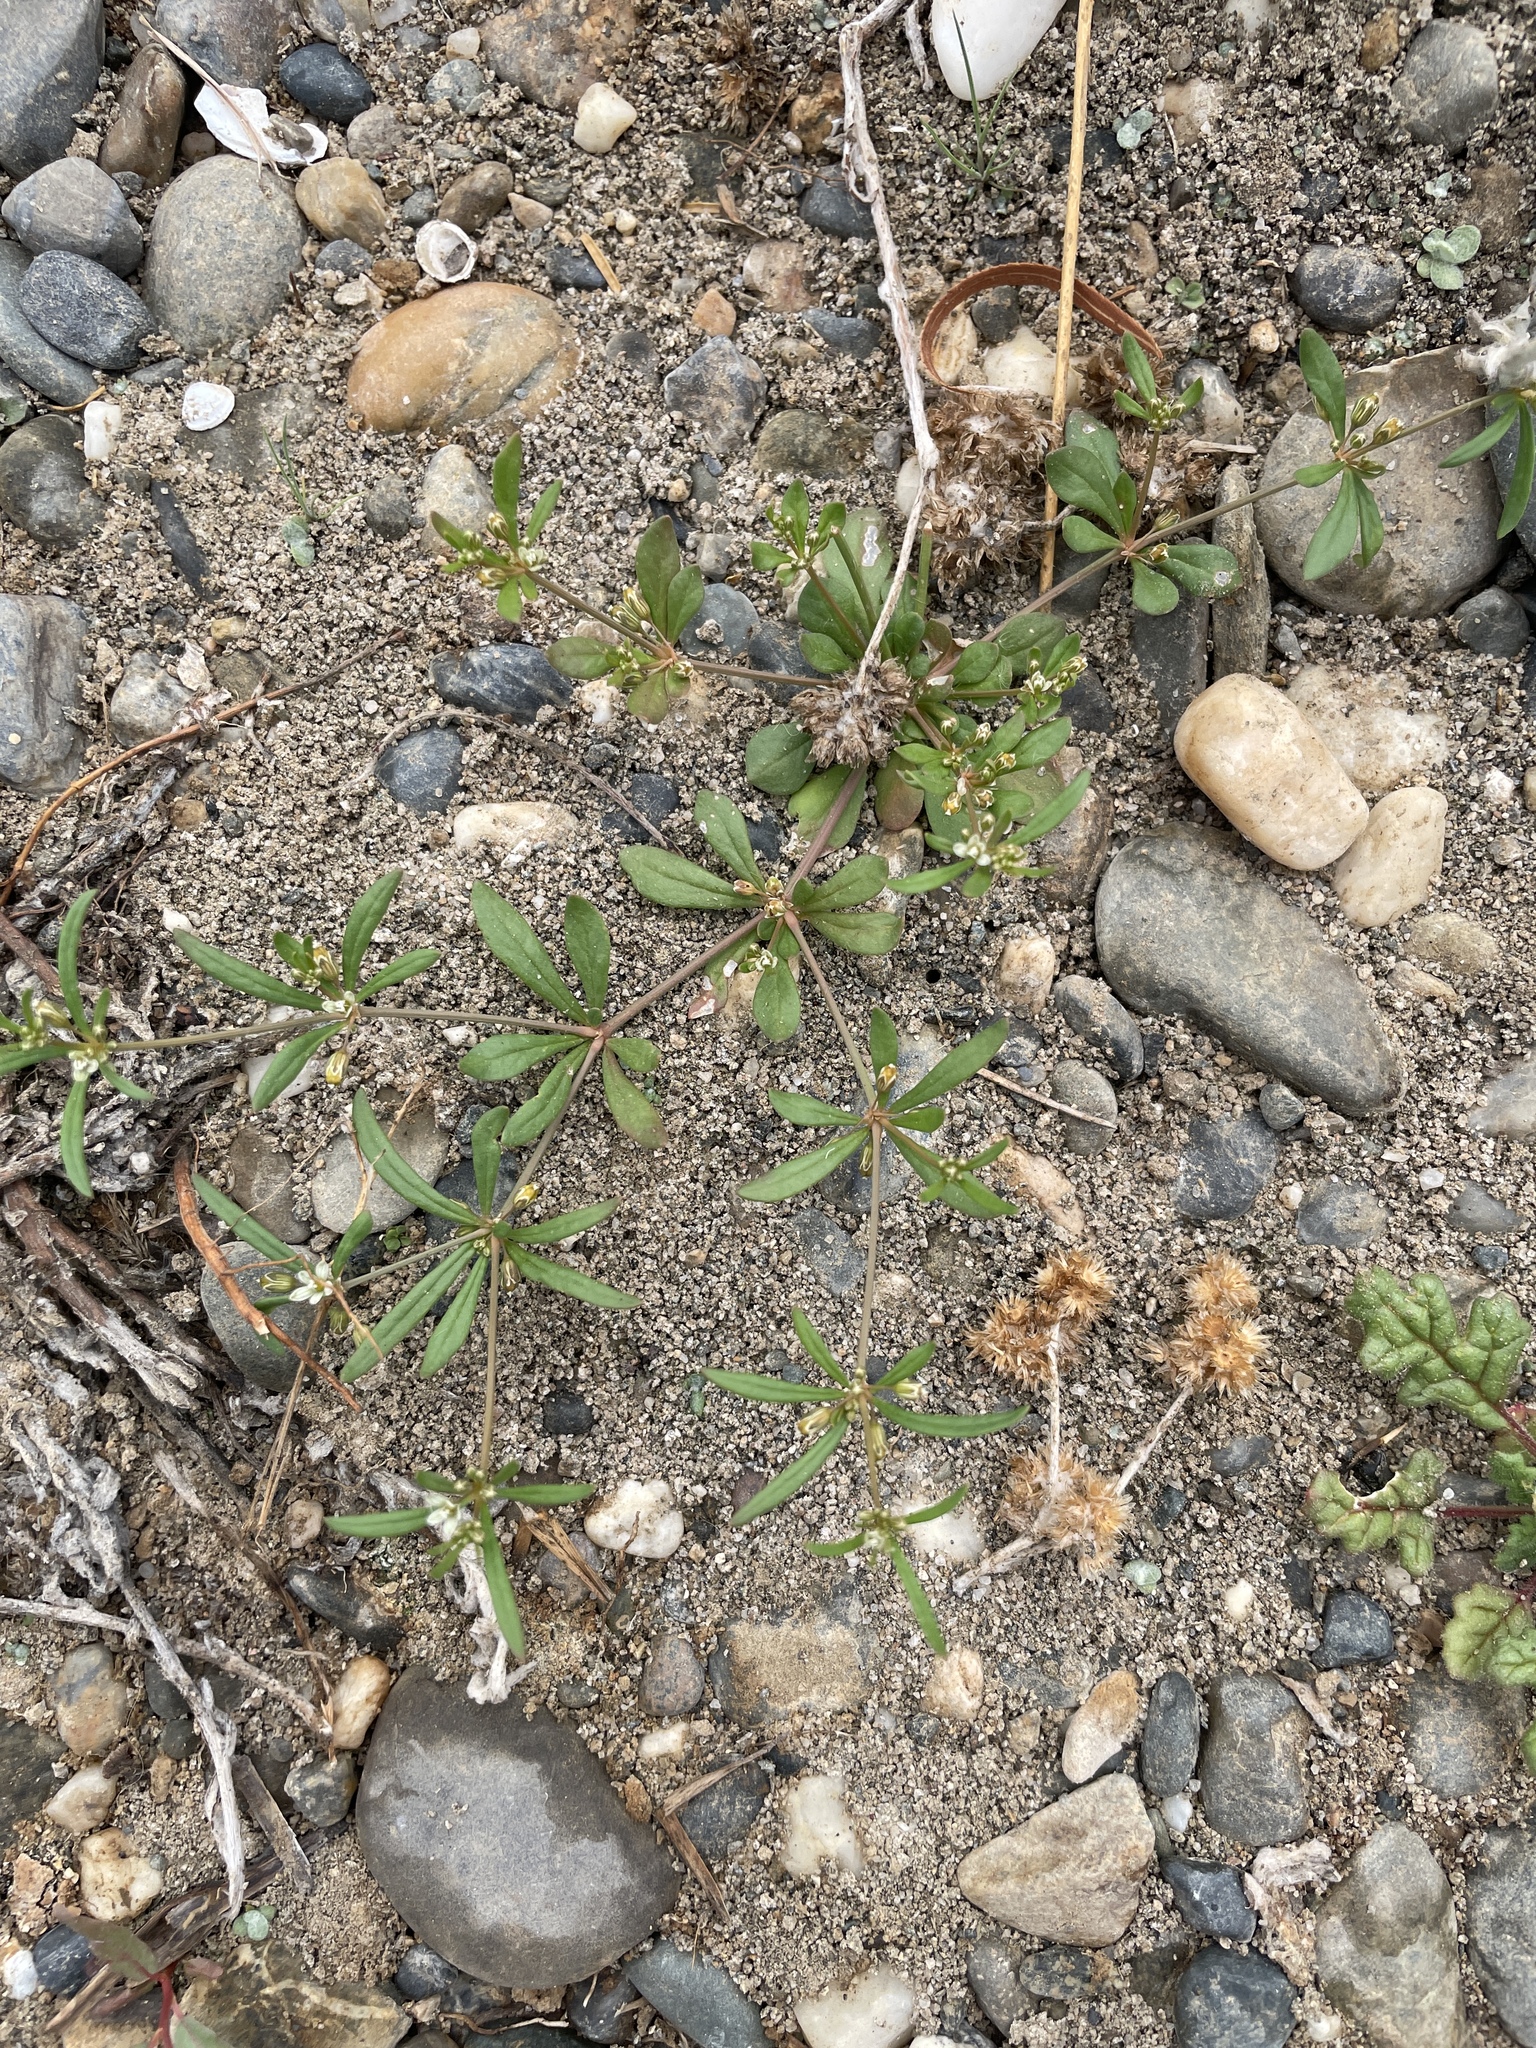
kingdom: Plantae
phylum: Tracheophyta
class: Magnoliopsida
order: Caryophyllales
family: Molluginaceae
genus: Mollugo
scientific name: Mollugo verticillata
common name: Green carpetweed
